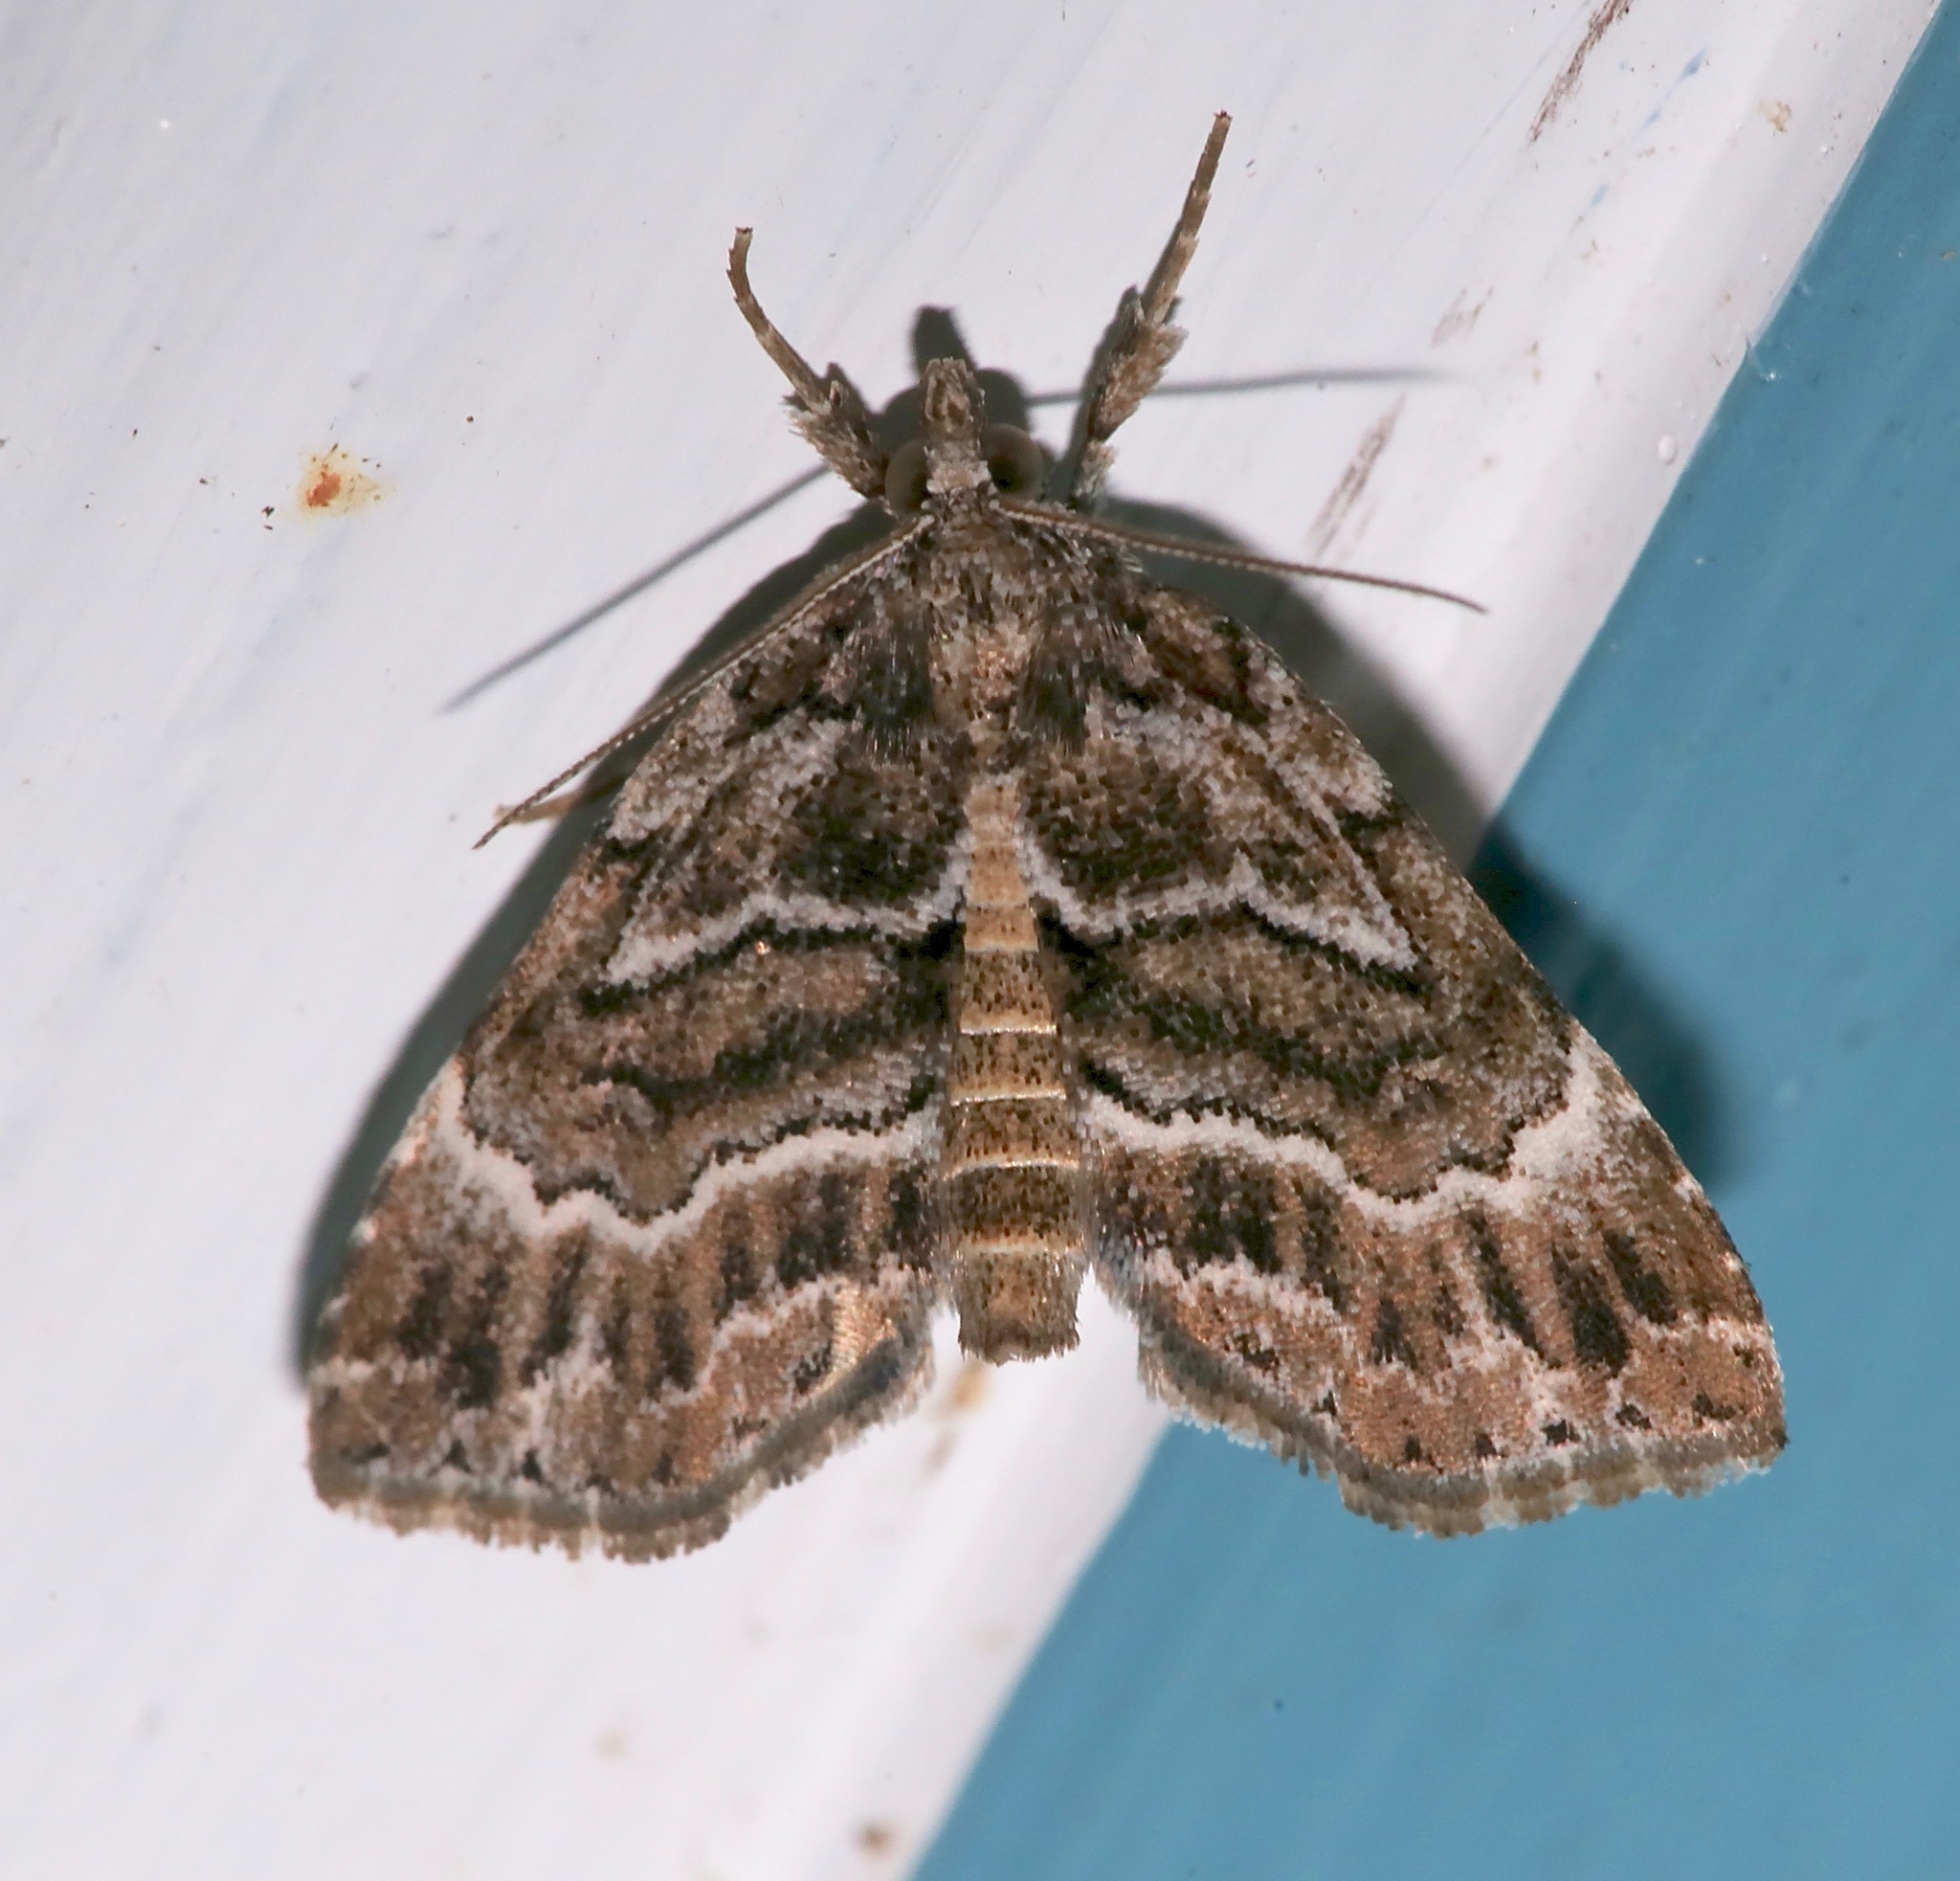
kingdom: Animalia
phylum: Arthropoda
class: Insecta
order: Lepidoptera
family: Erebidae
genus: Cutina
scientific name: Cutina arcuata
